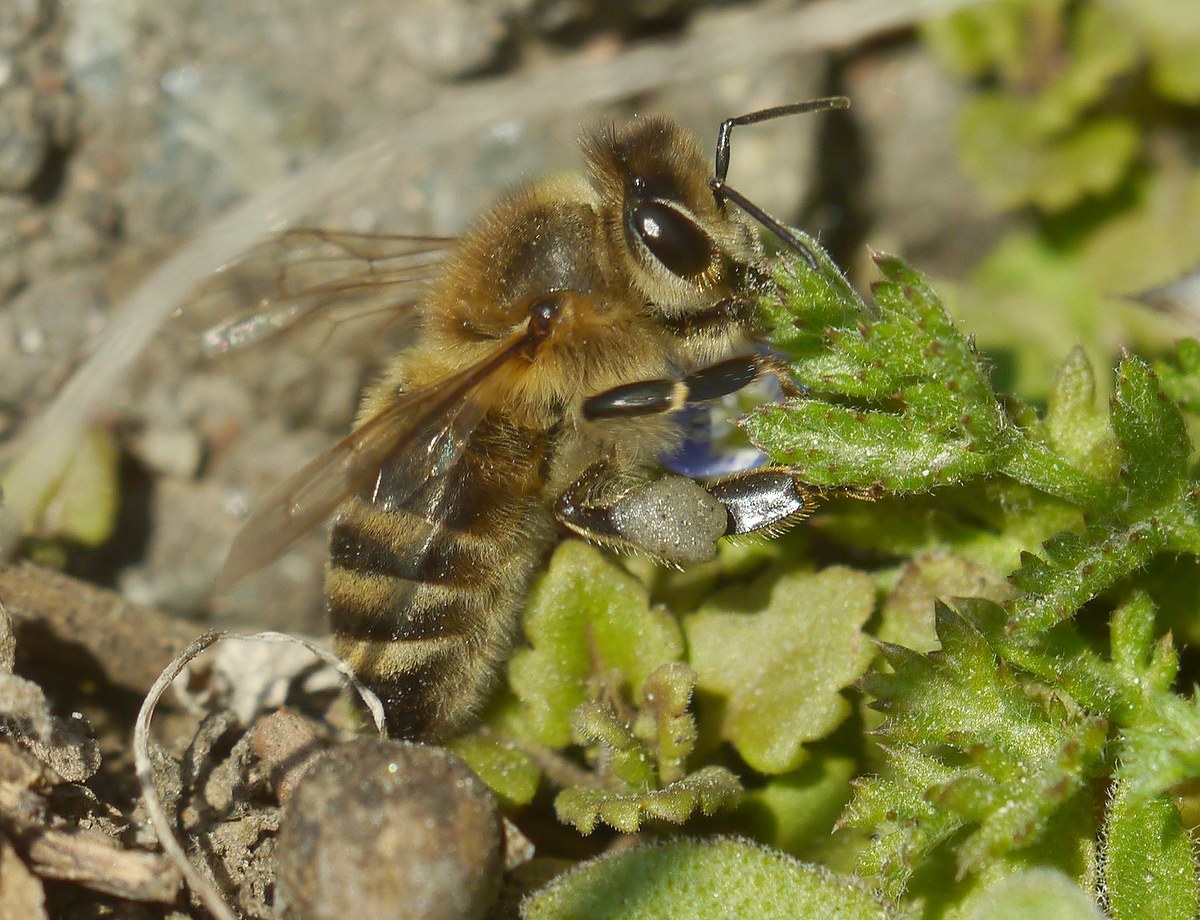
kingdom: Animalia
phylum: Arthropoda
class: Insecta
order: Hymenoptera
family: Apidae
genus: Apis
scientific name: Apis mellifera
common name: Honey bee
